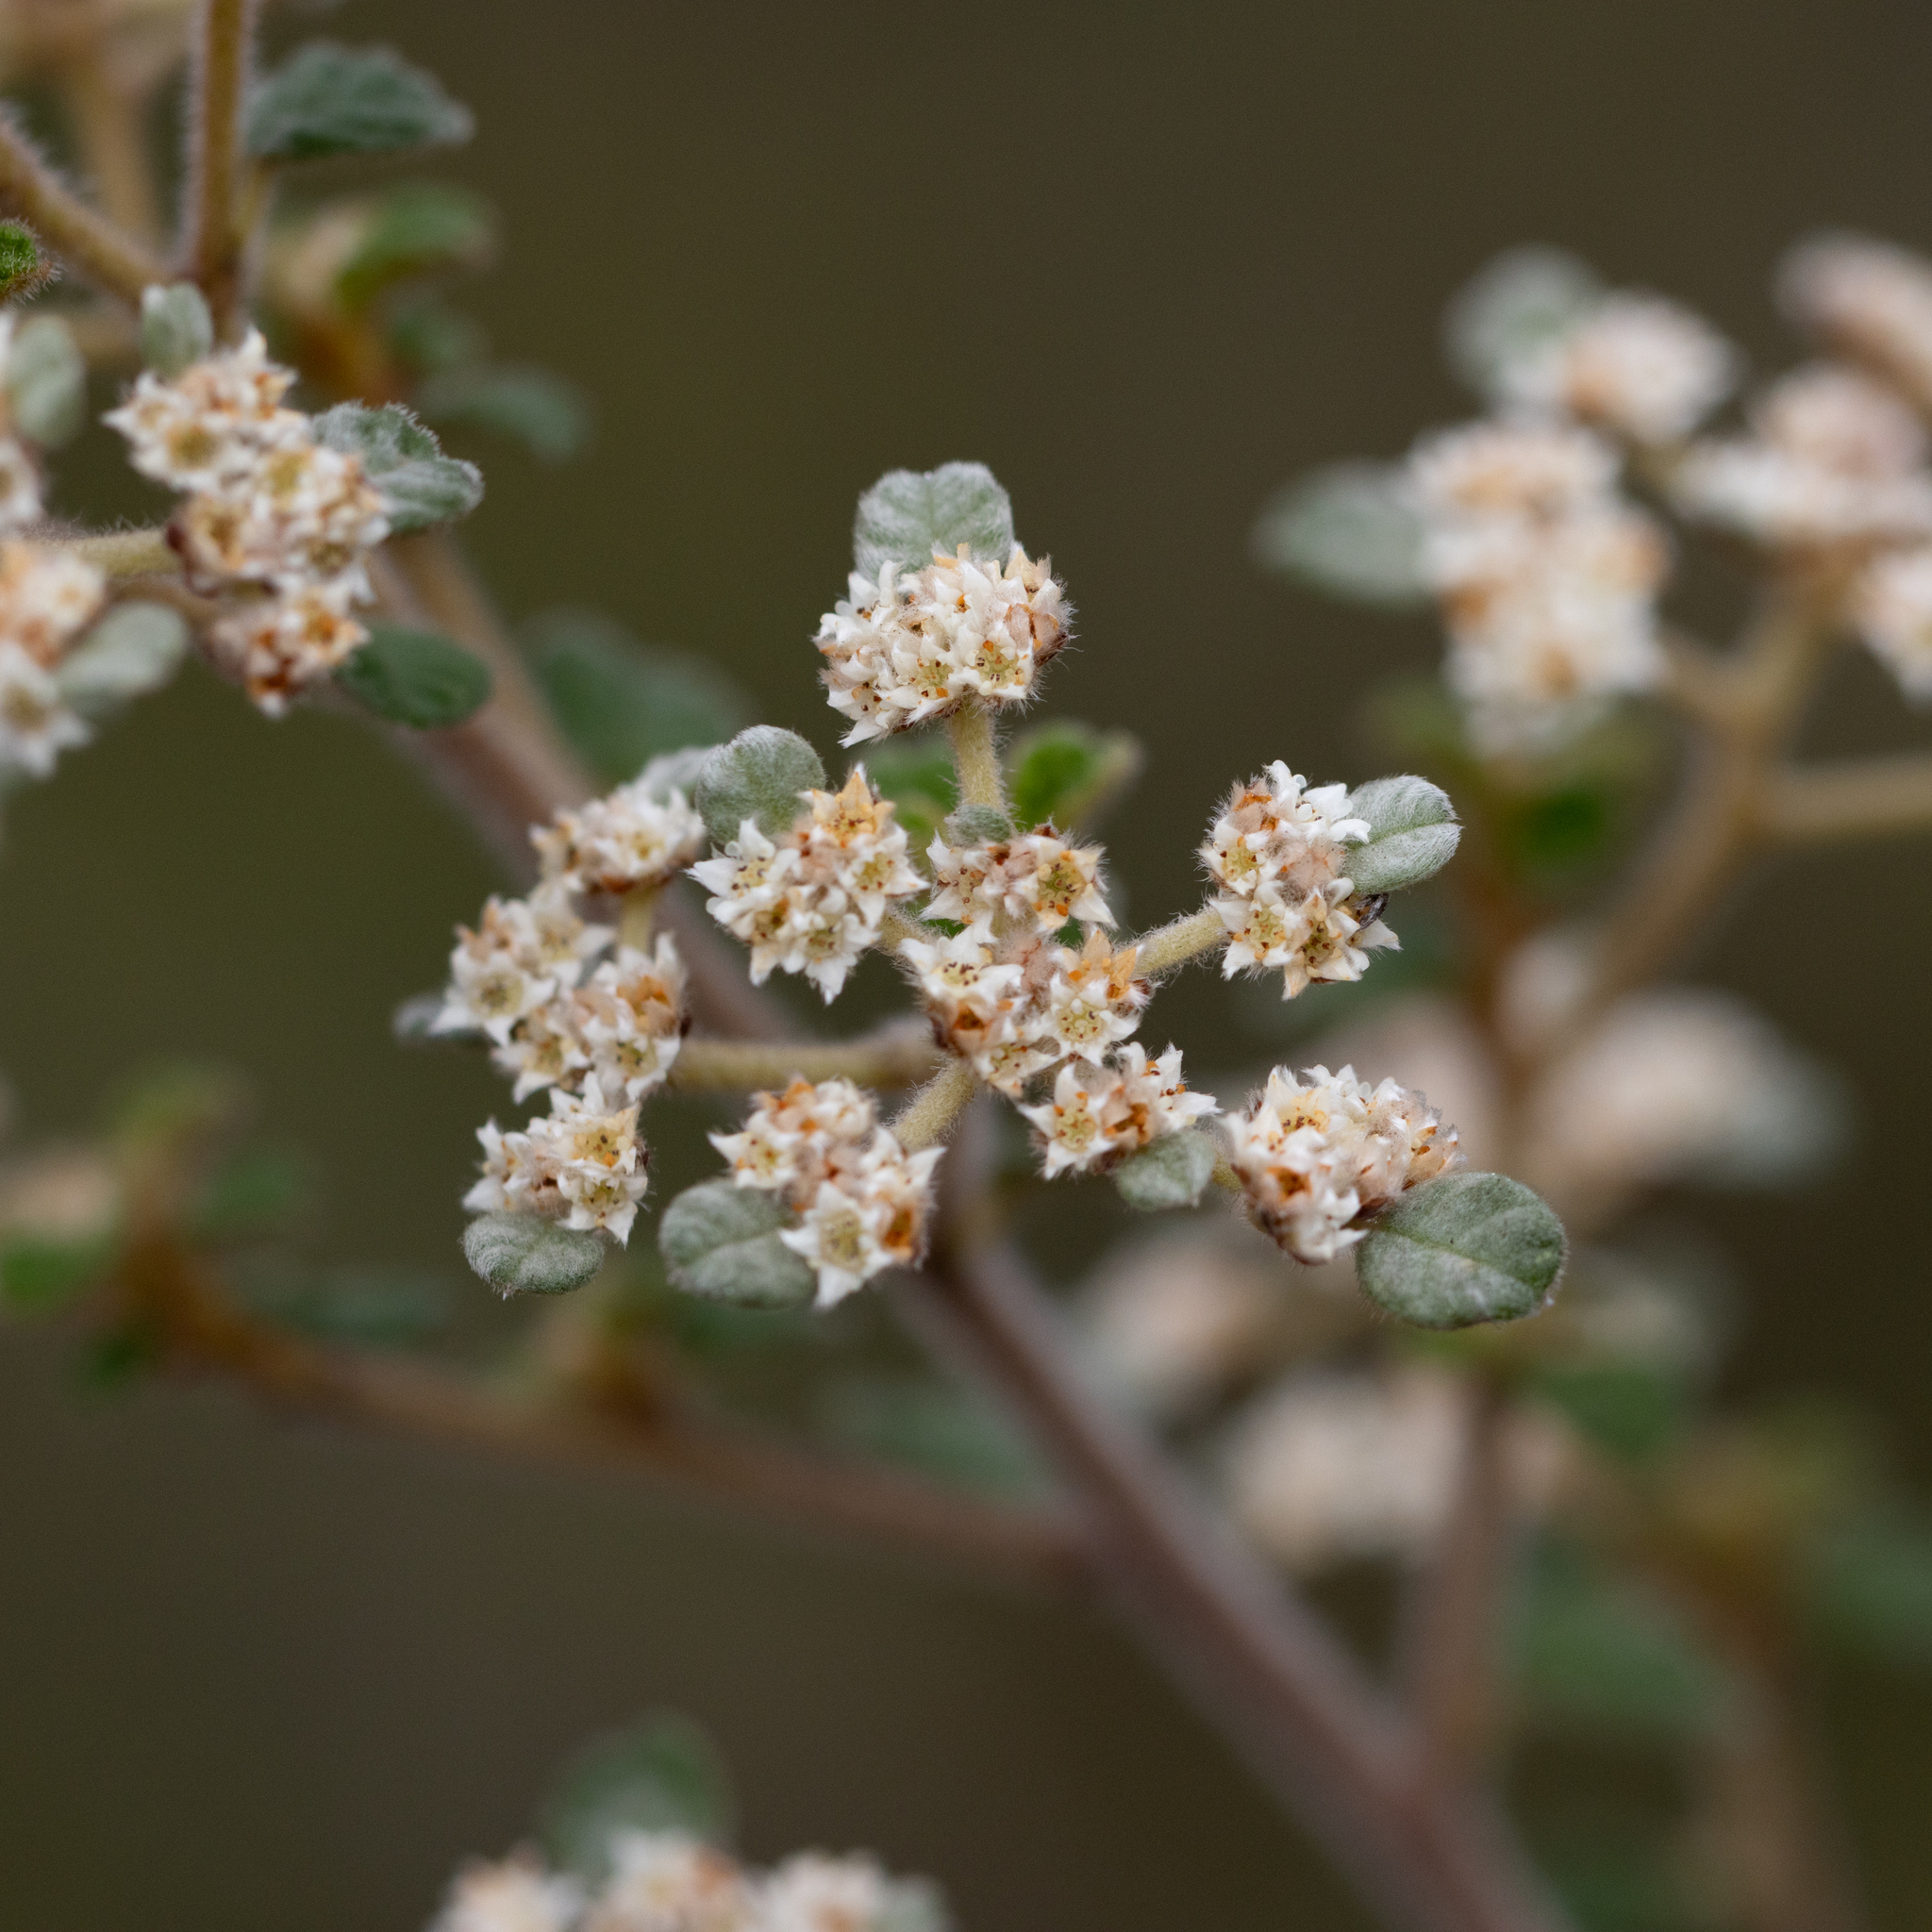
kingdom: Plantae
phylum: Tracheophyta
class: Magnoliopsida
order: Rosales
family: Rhamnaceae
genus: Spyridium
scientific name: Spyridium parvifolium
